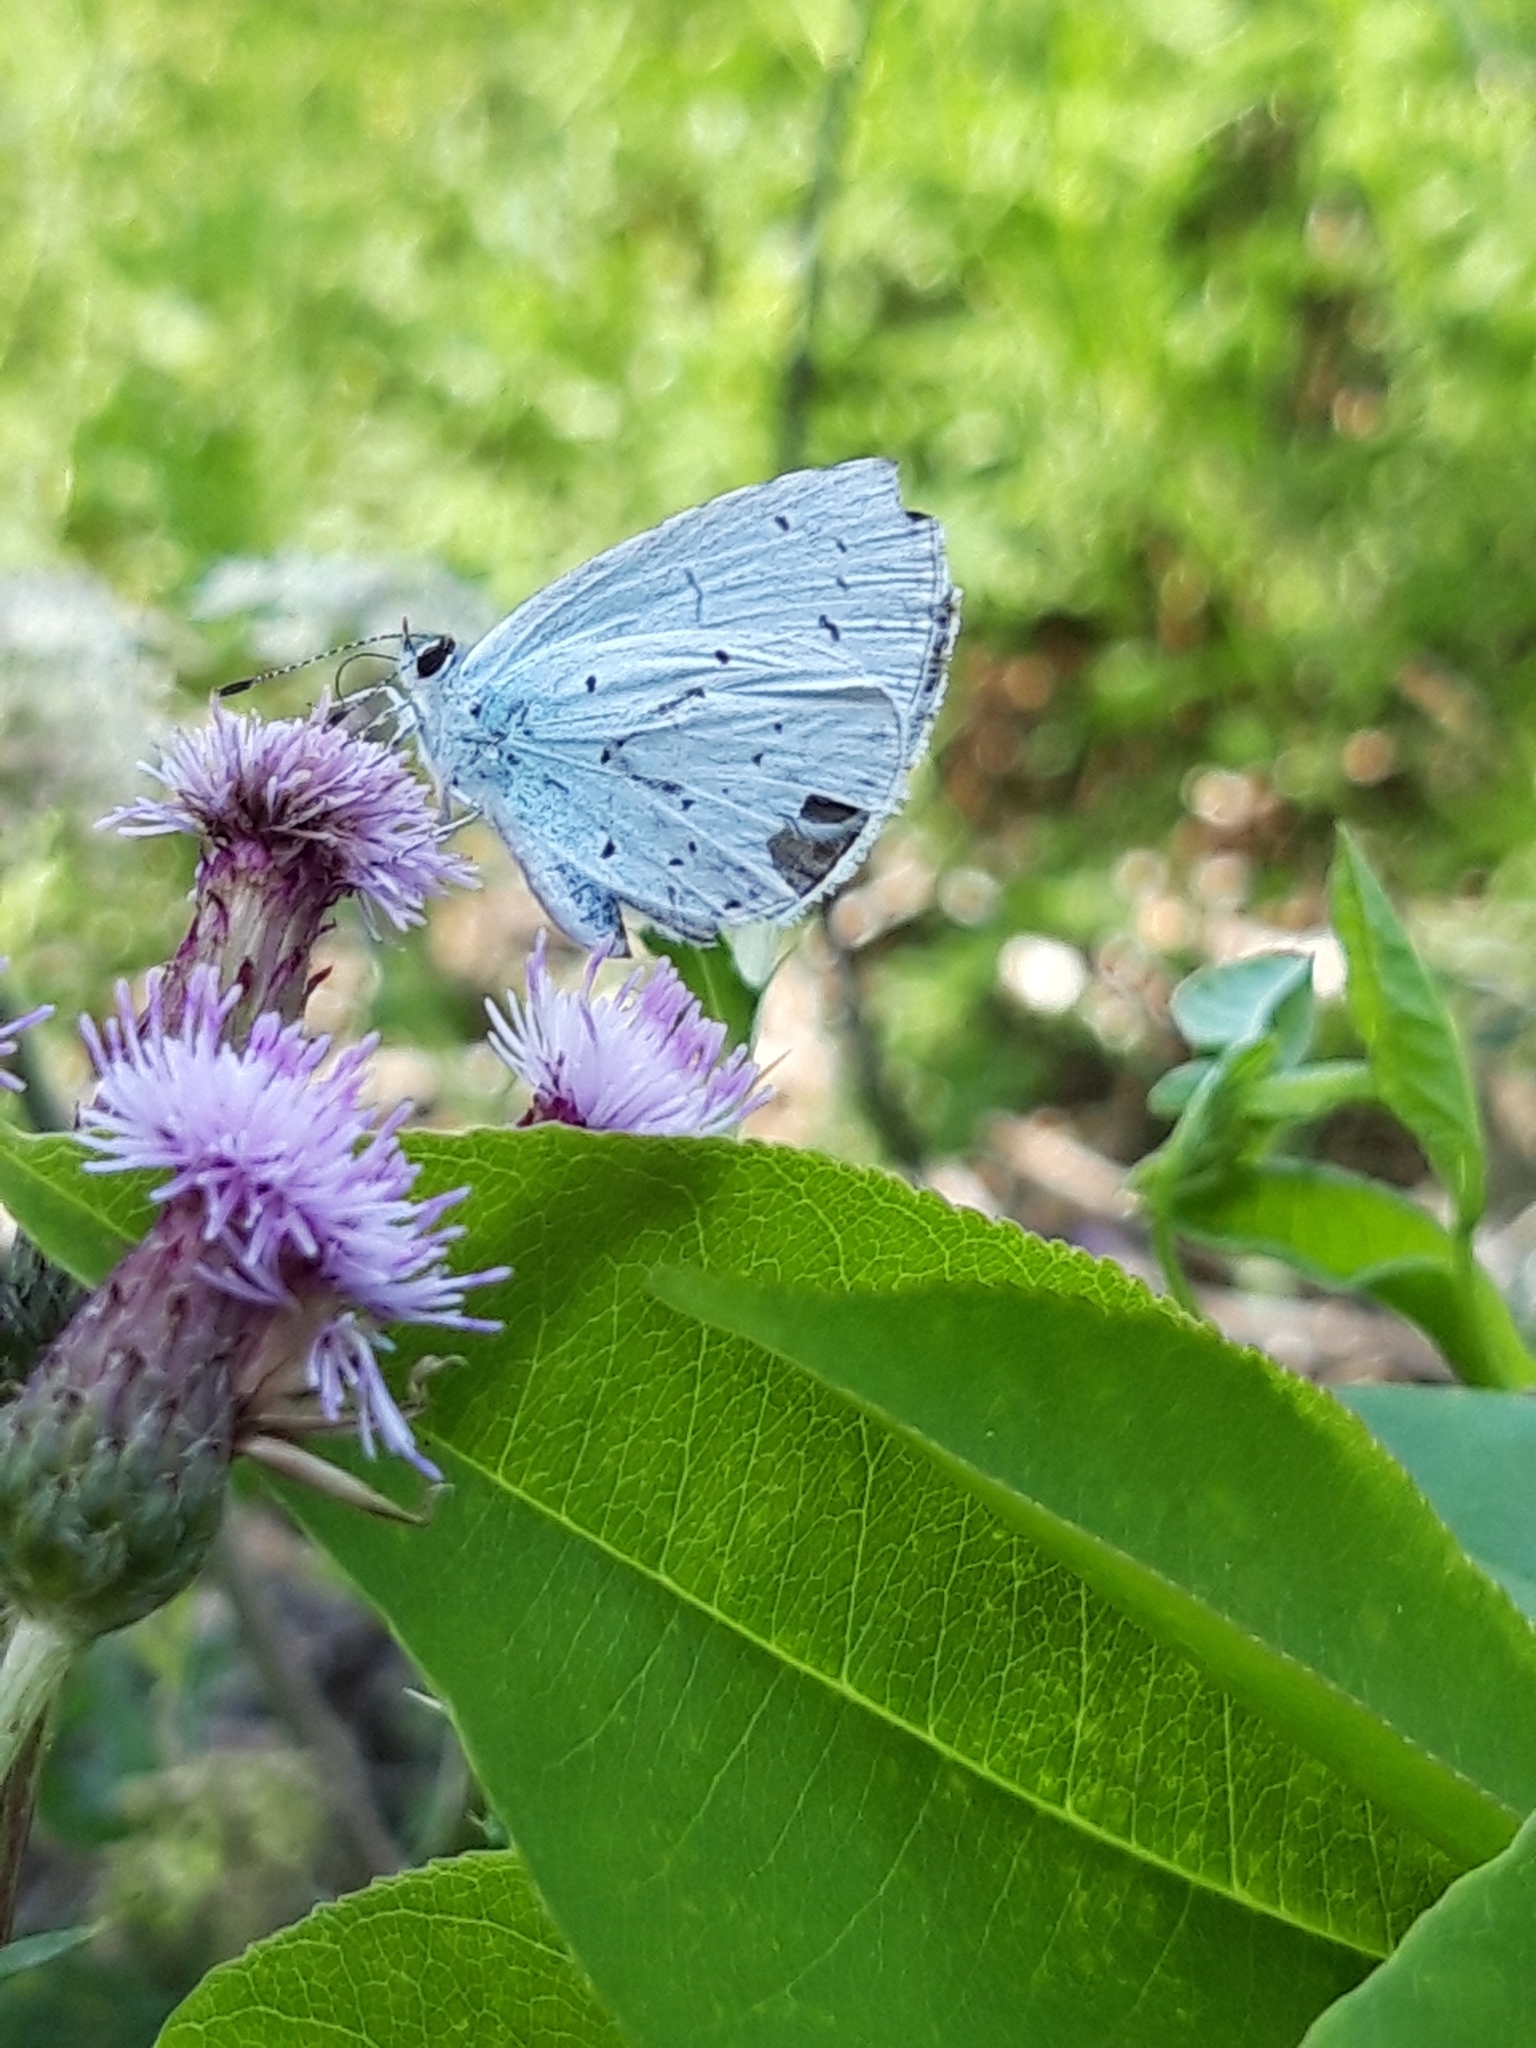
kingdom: Animalia
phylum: Arthropoda
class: Insecta
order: Lepidoptera
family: Lycaenidae
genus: Celastrina
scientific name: Celastrina argiolus
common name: Holly blue
